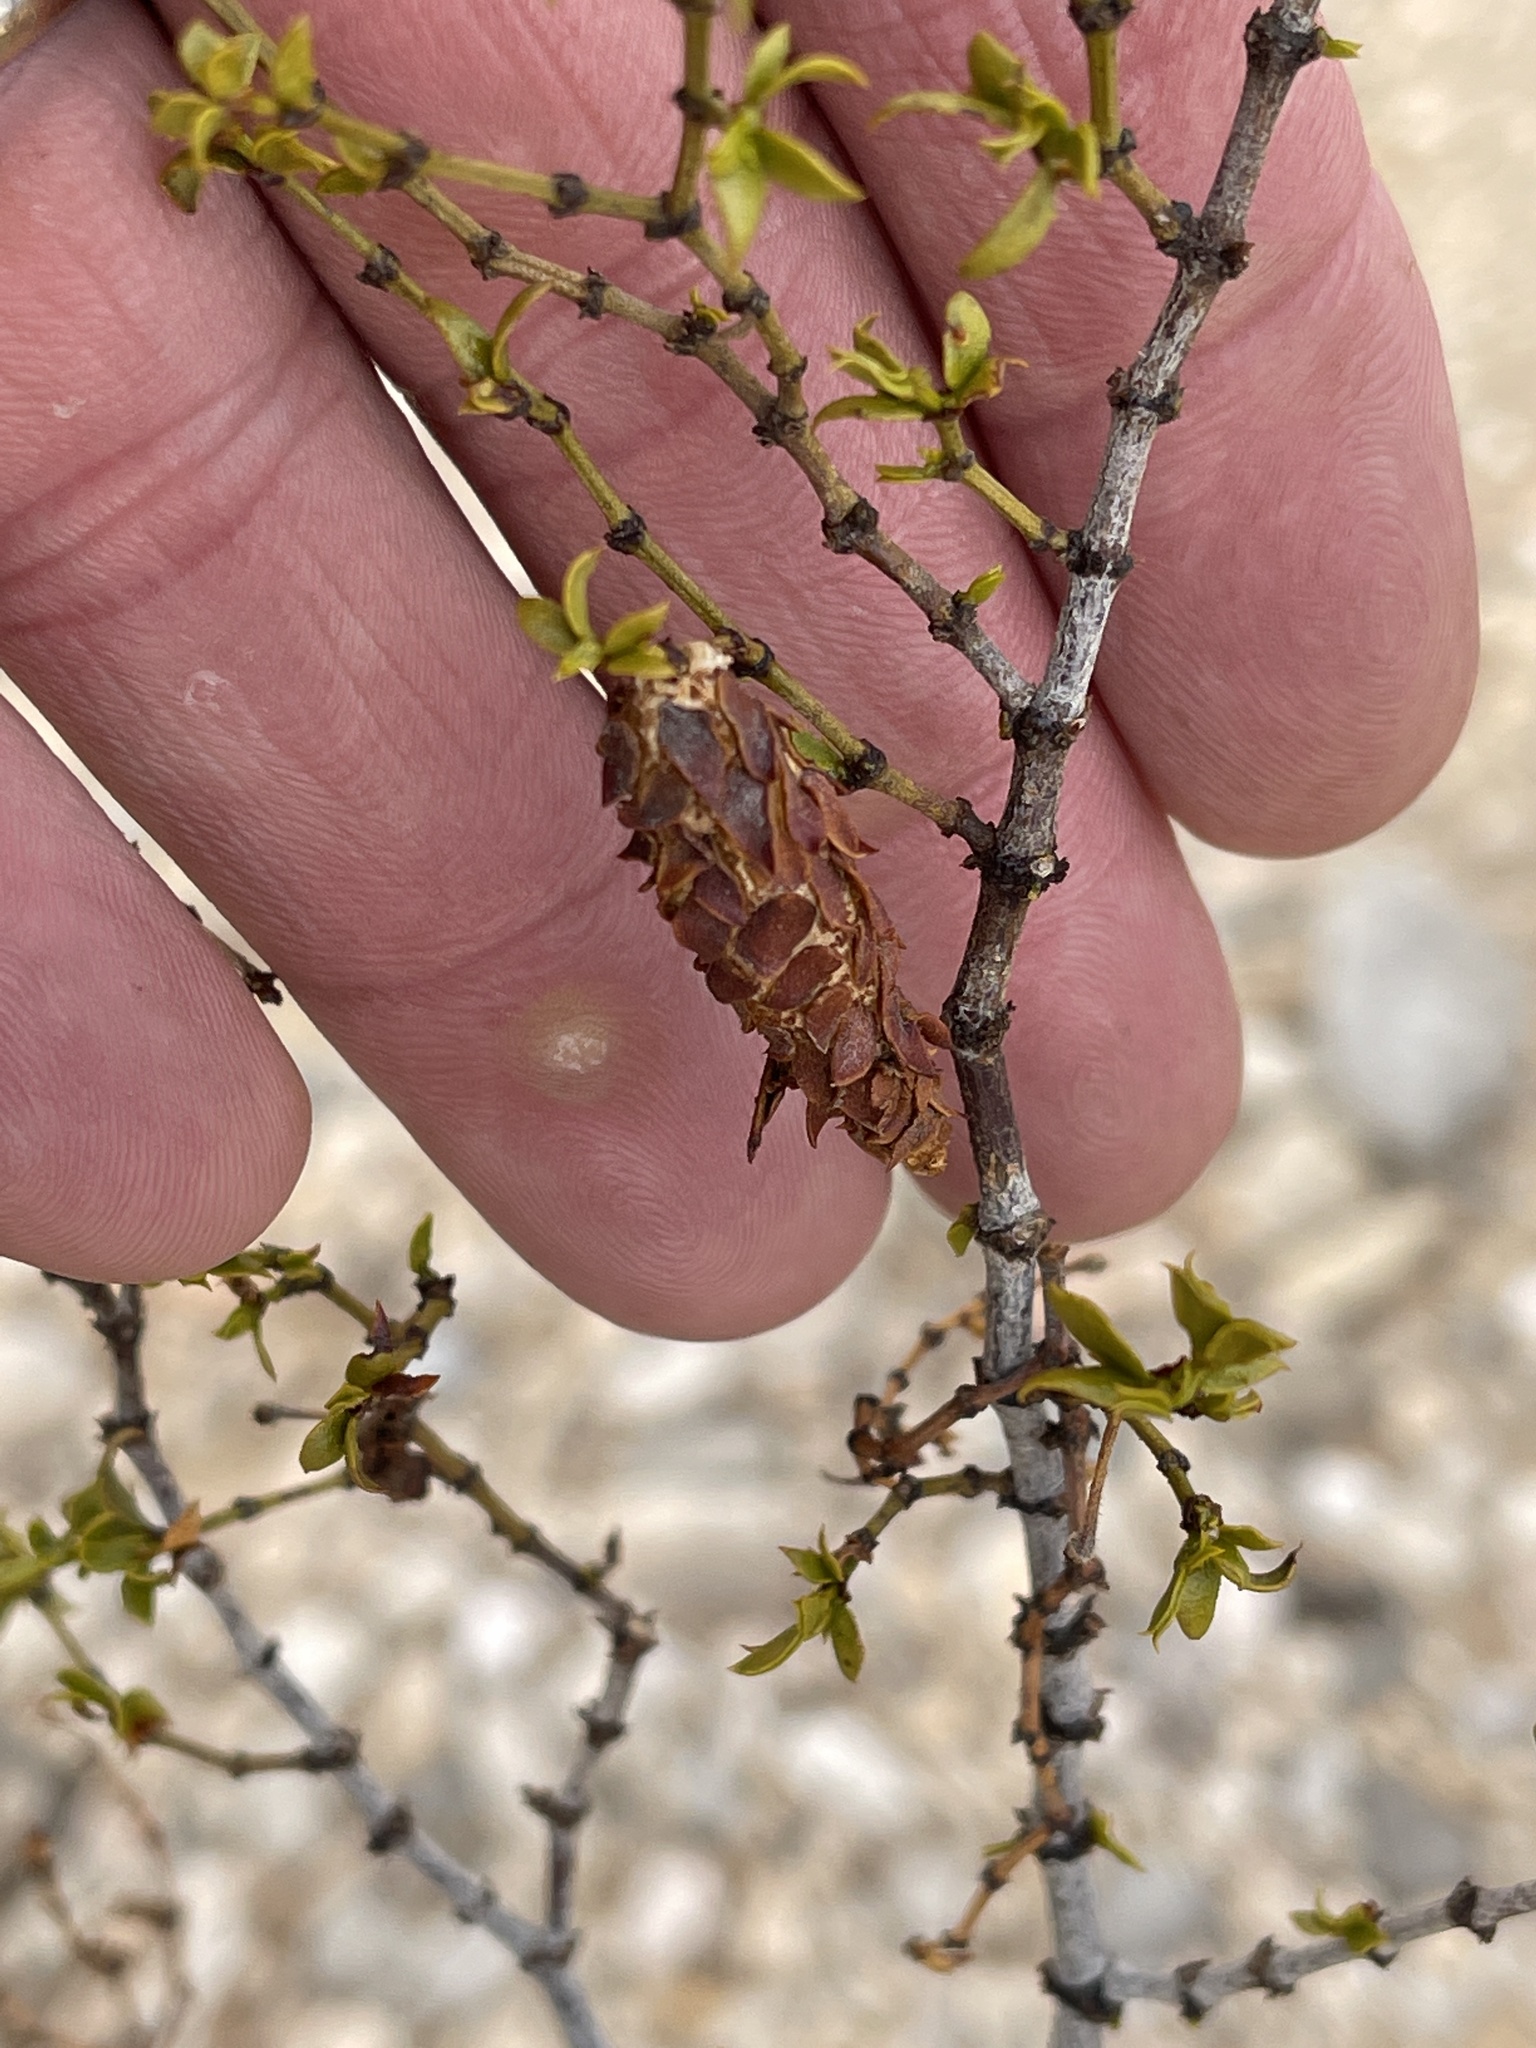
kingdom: Animalia
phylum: Arthropoda
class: Insecta
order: Lepidoptera
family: Psychidae
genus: Thyridopteryx
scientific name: Thyridopteryx meadii
